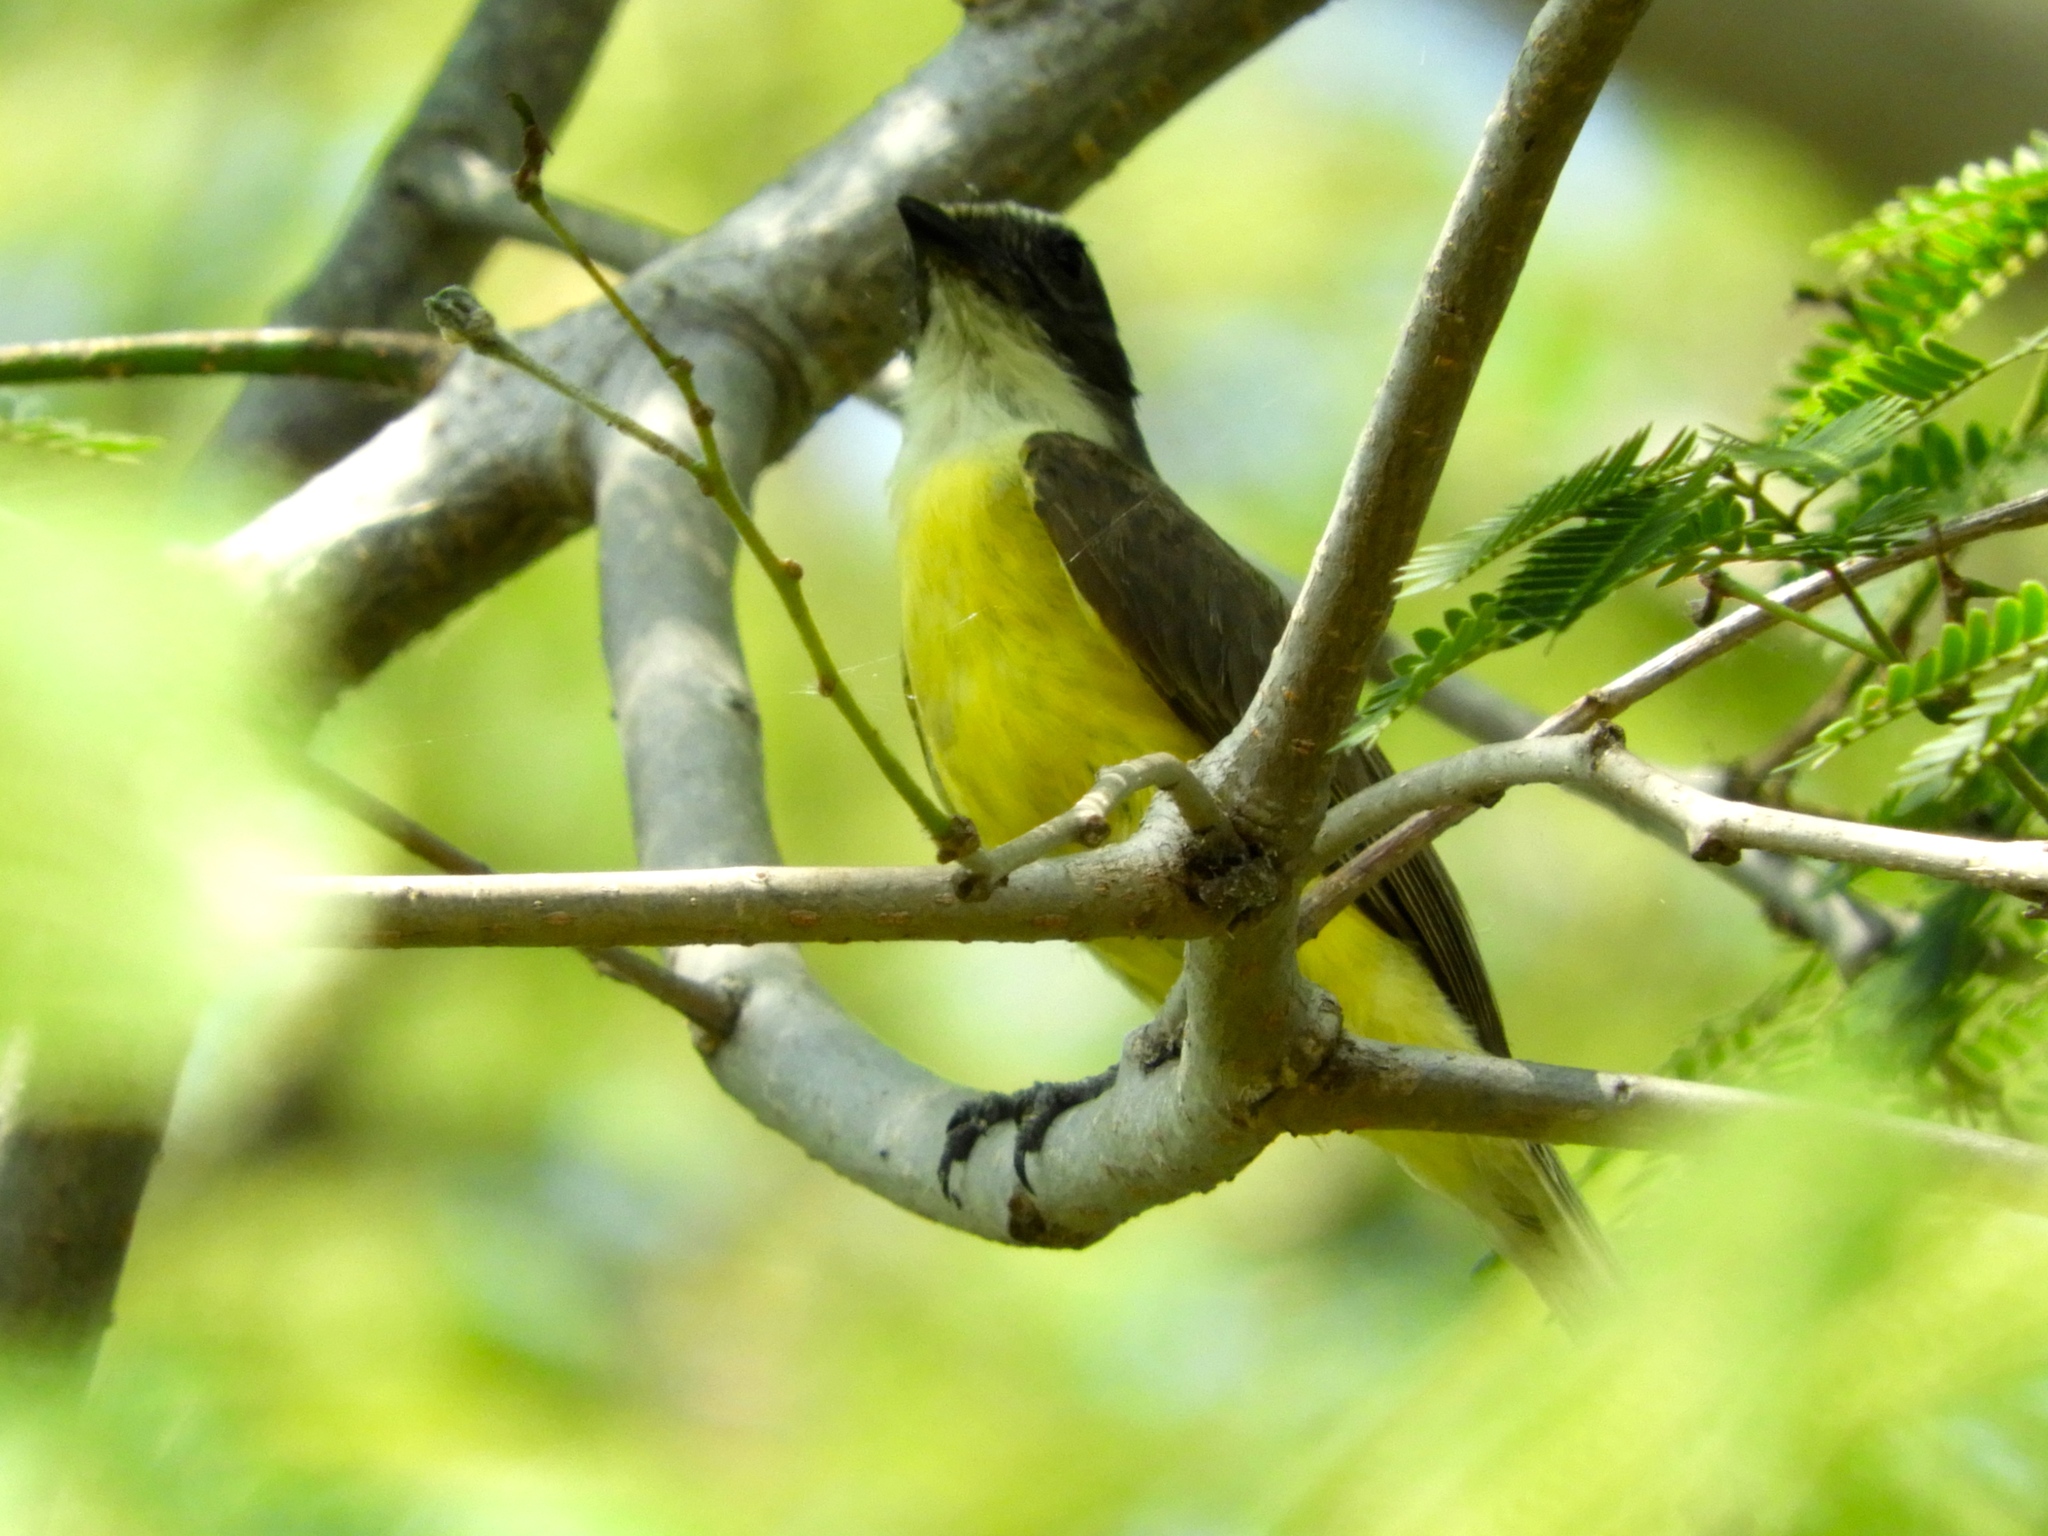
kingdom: Animalia
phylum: Chordata
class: Aves
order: Passeriformes
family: Tyrannidae
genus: Myiozetetes
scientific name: Myiozetetes similis
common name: Social flycatcher
